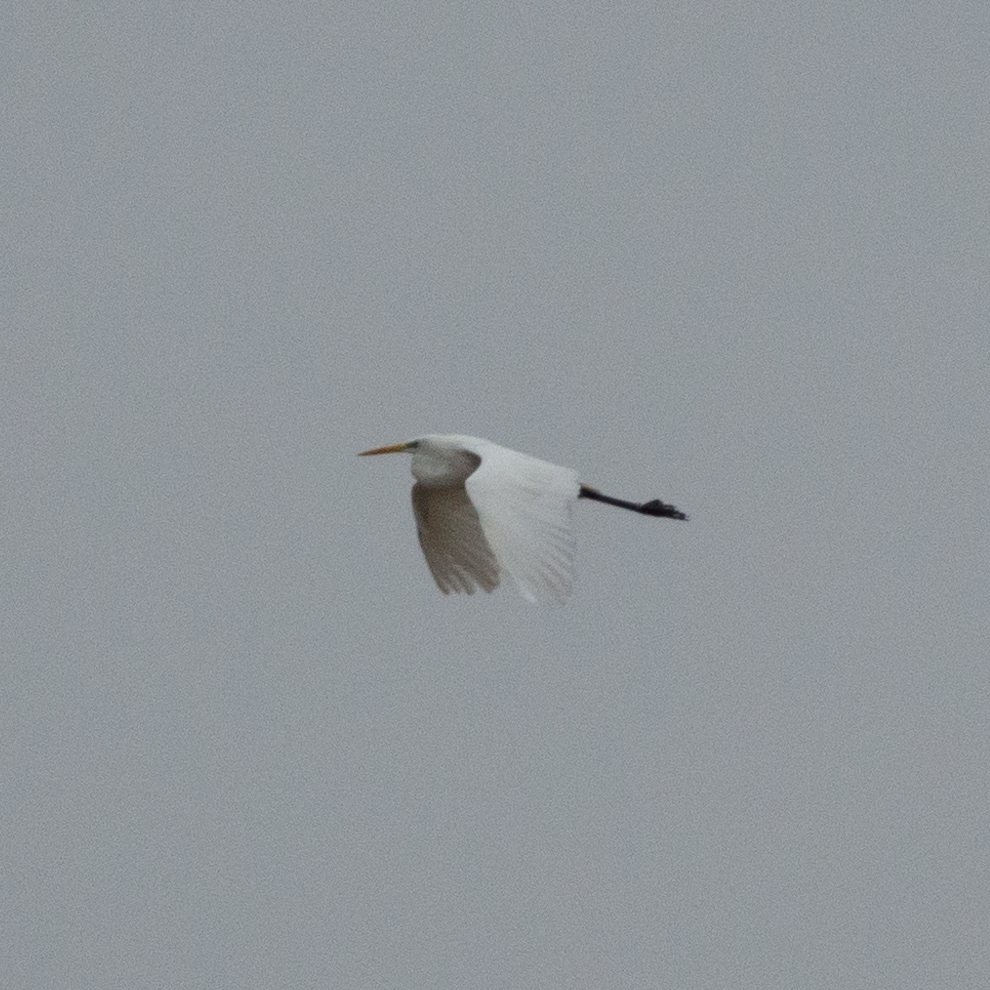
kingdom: Animalia
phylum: Chordata
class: Aves
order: Pelecaniformes
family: Ardeidae
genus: Ardea
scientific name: Ardea alba
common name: Great egret
